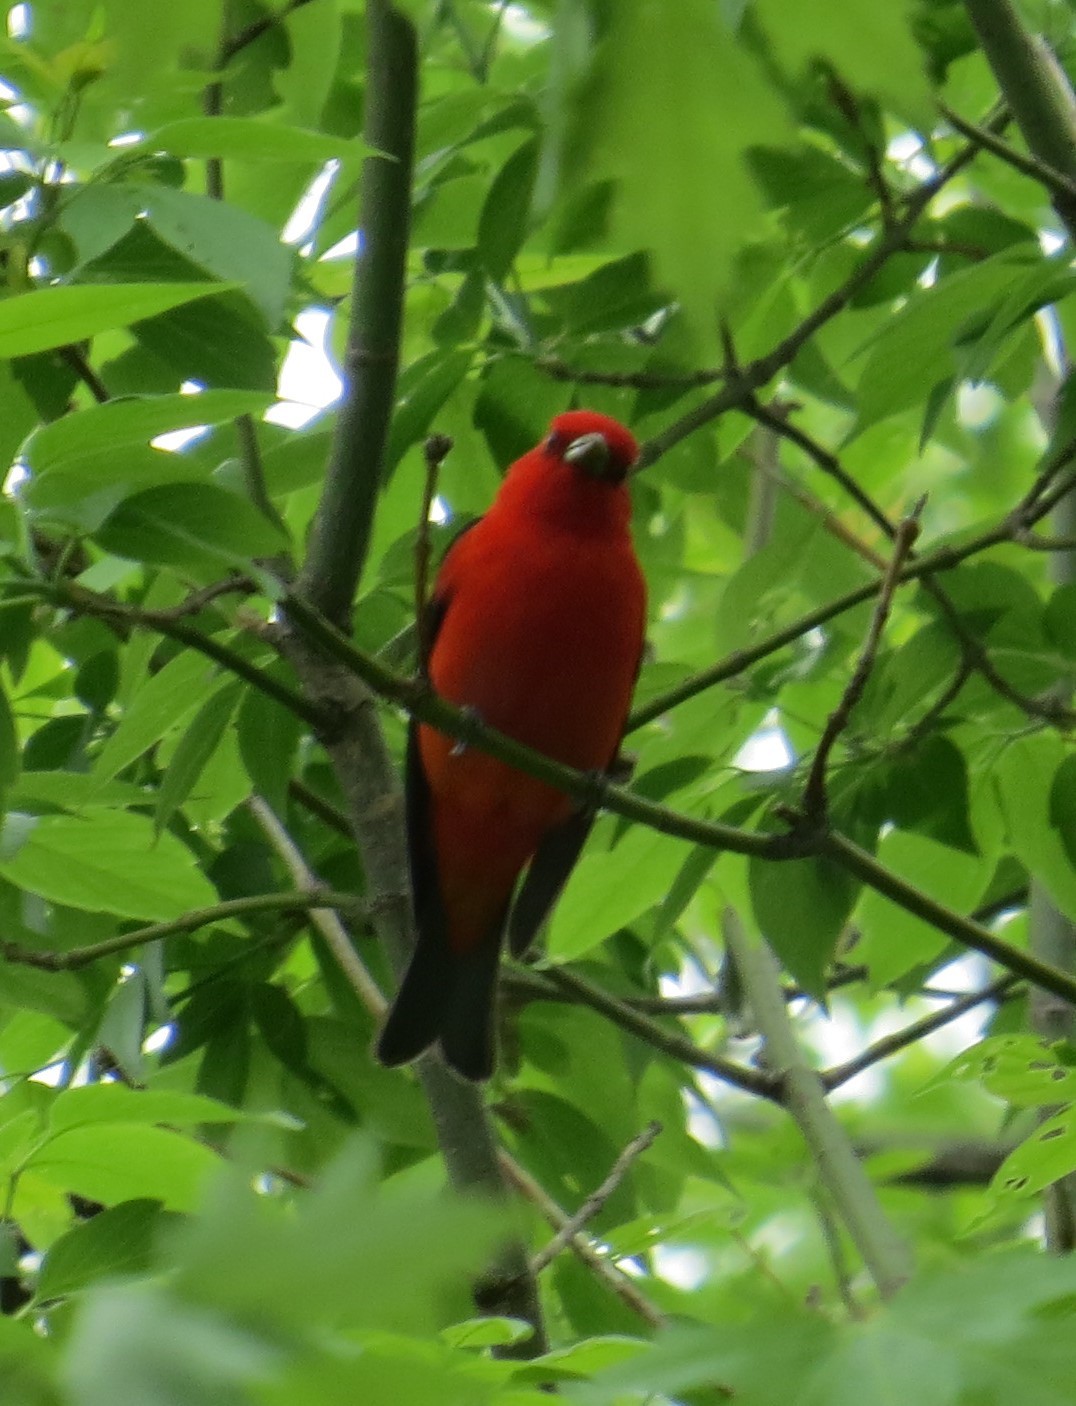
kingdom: Animalia
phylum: Chordata
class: Aves
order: Passeriformes
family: Cardinalidae
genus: Piranga
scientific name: Piranga olivacea
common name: Scarlet tanager
